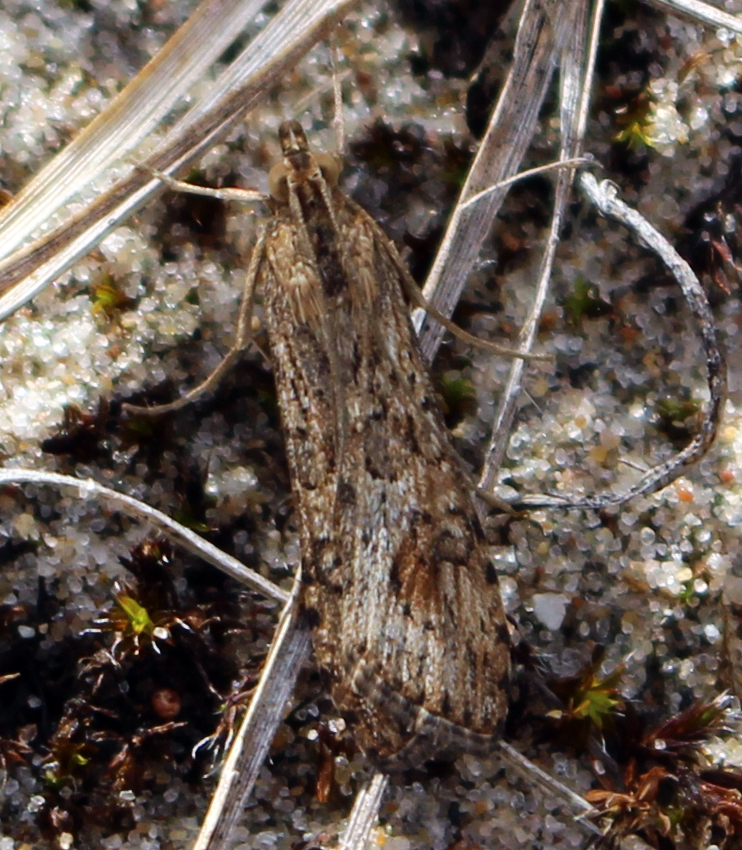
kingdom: Animalia
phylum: Arthropoda
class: Insecta
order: Lepidoptera
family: Crambidae
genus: Nomophila
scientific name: Nomophila nearctica
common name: American rush veneer
